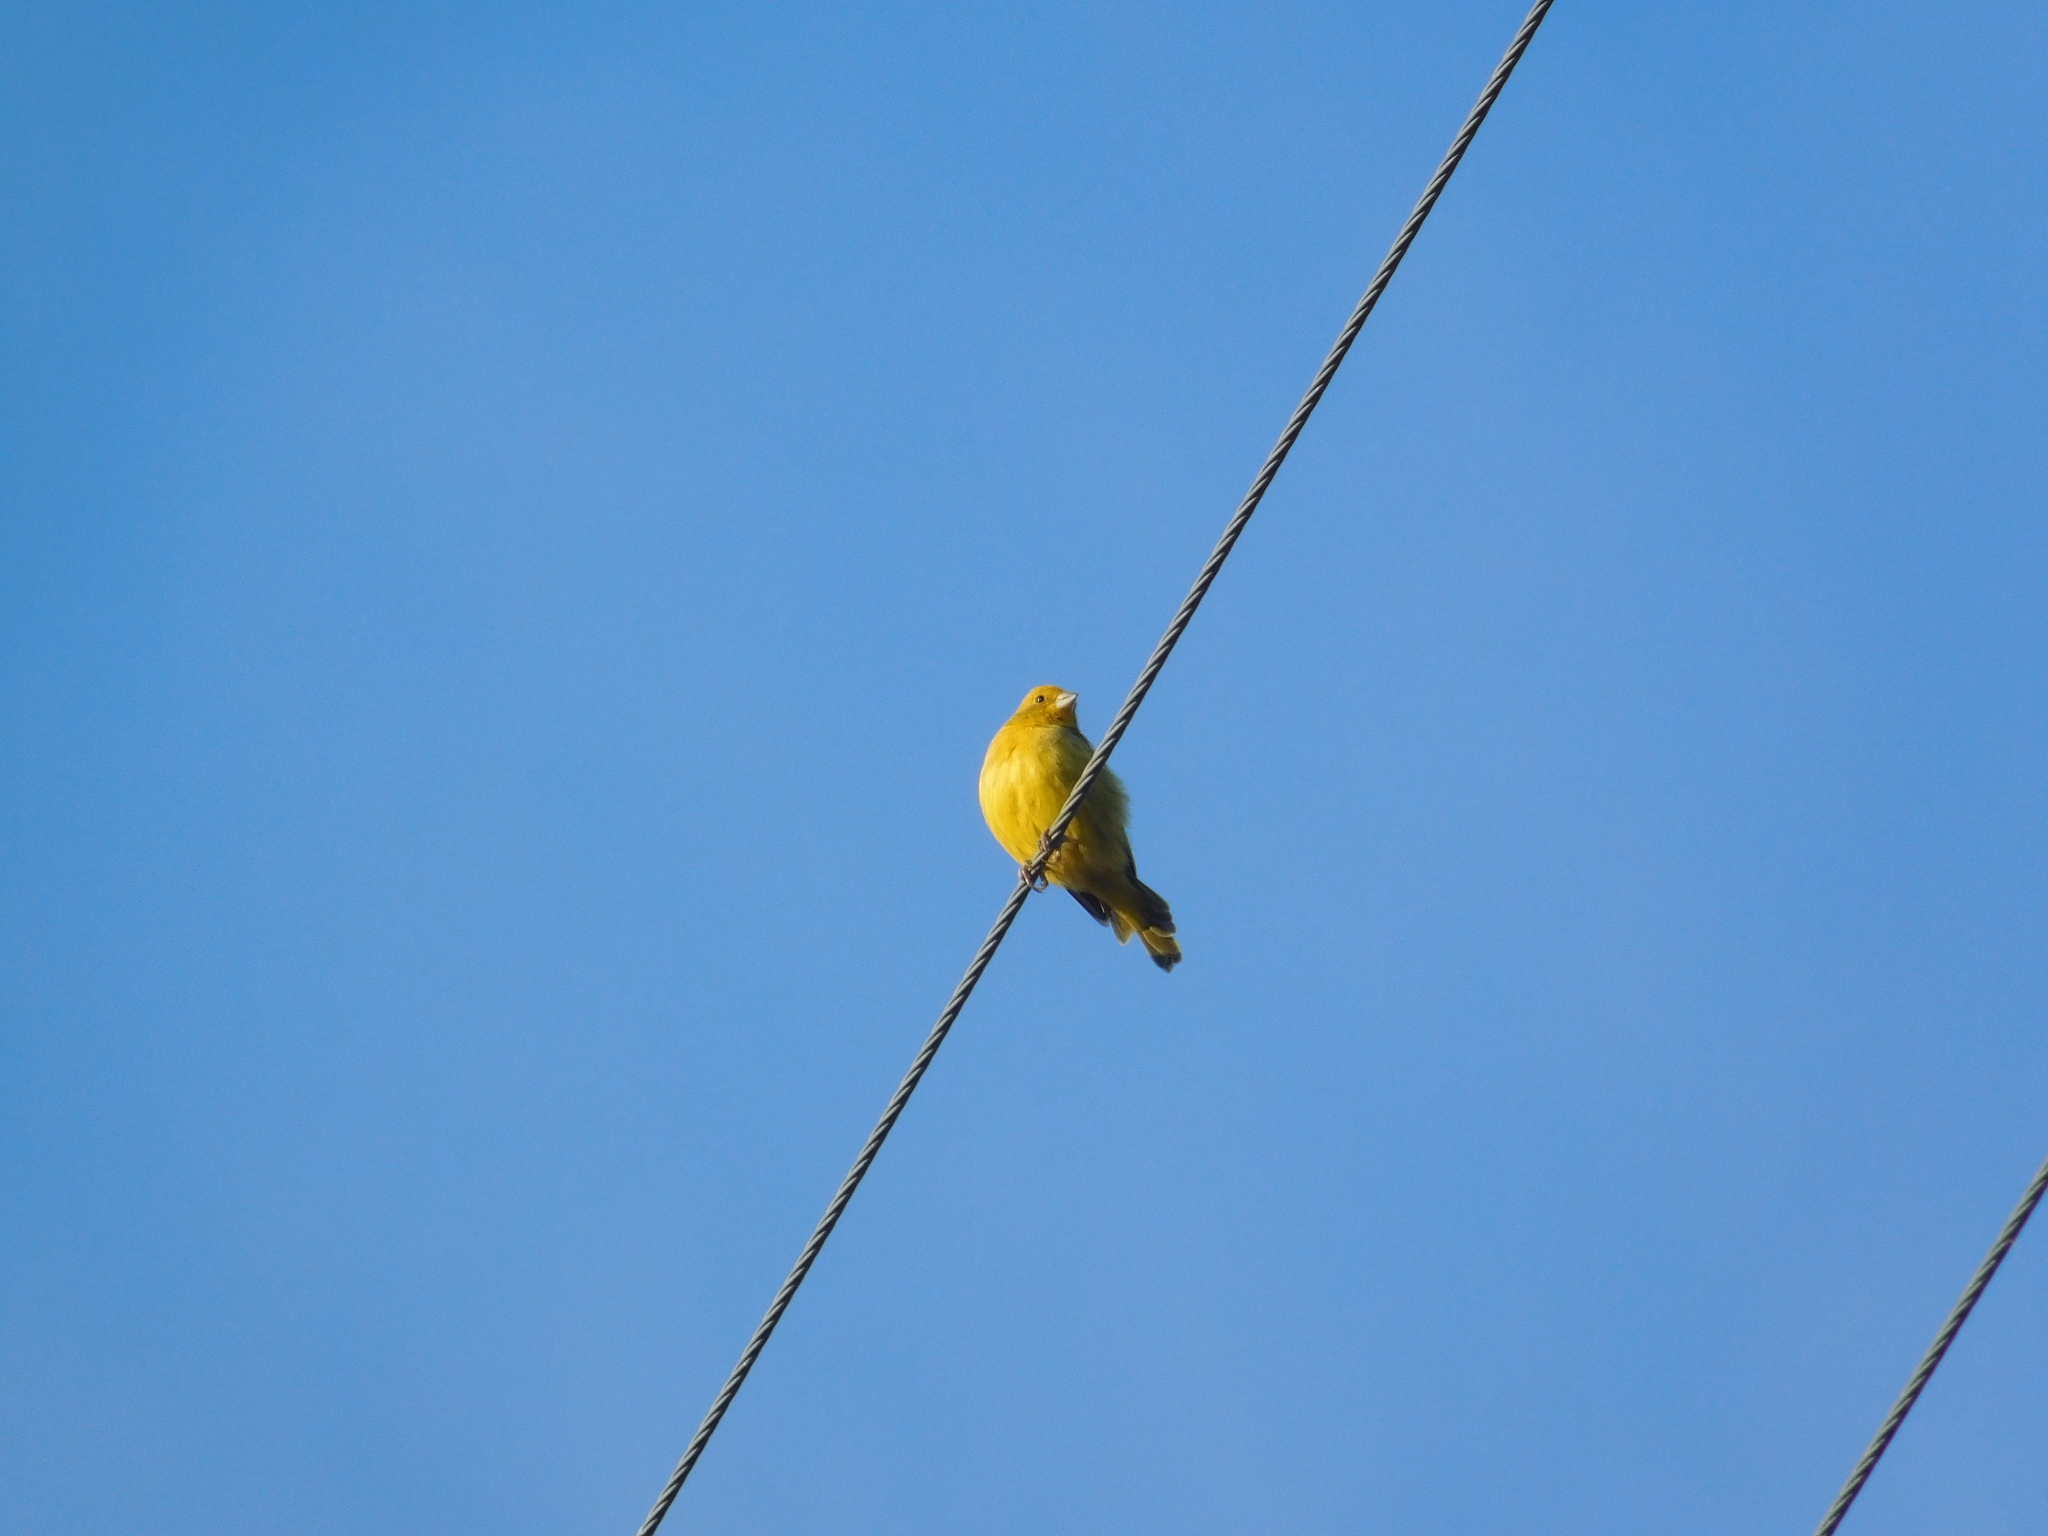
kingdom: Animalia
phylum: Chordata
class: Aves
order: Passeriformes
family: Thraupidae
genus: Sicalis
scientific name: Sicalis flaveola
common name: Saffron finch
